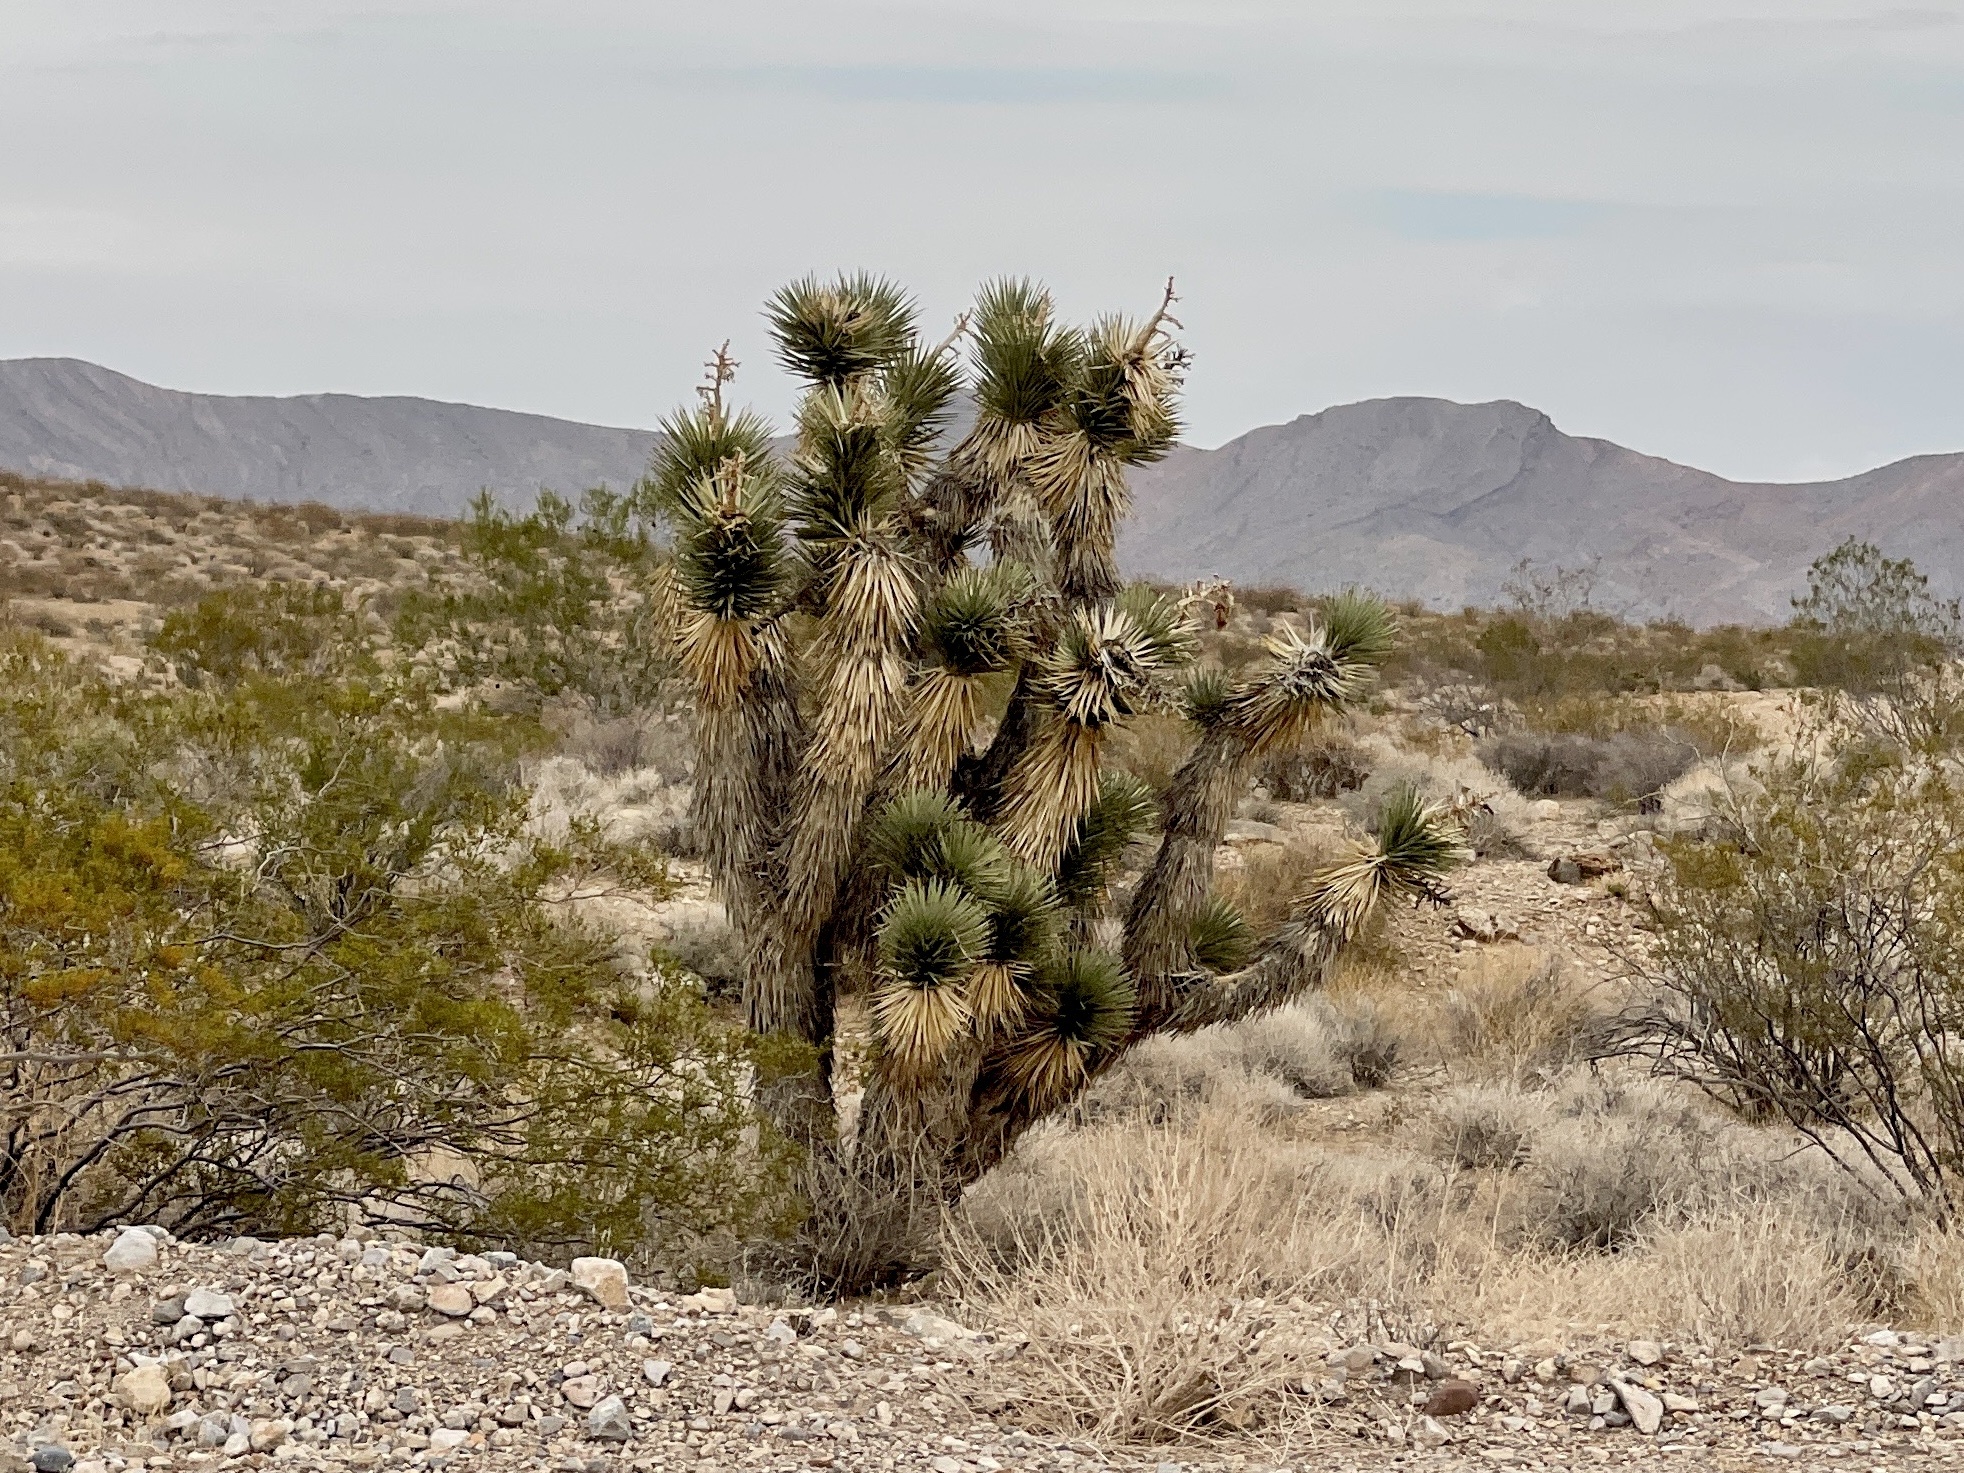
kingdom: Plantae
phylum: Tracheophyta
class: Liliopsida
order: Asparagales
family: Asparagaceae
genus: Yucca
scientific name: Yucca brevifolia
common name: Joshua tree
